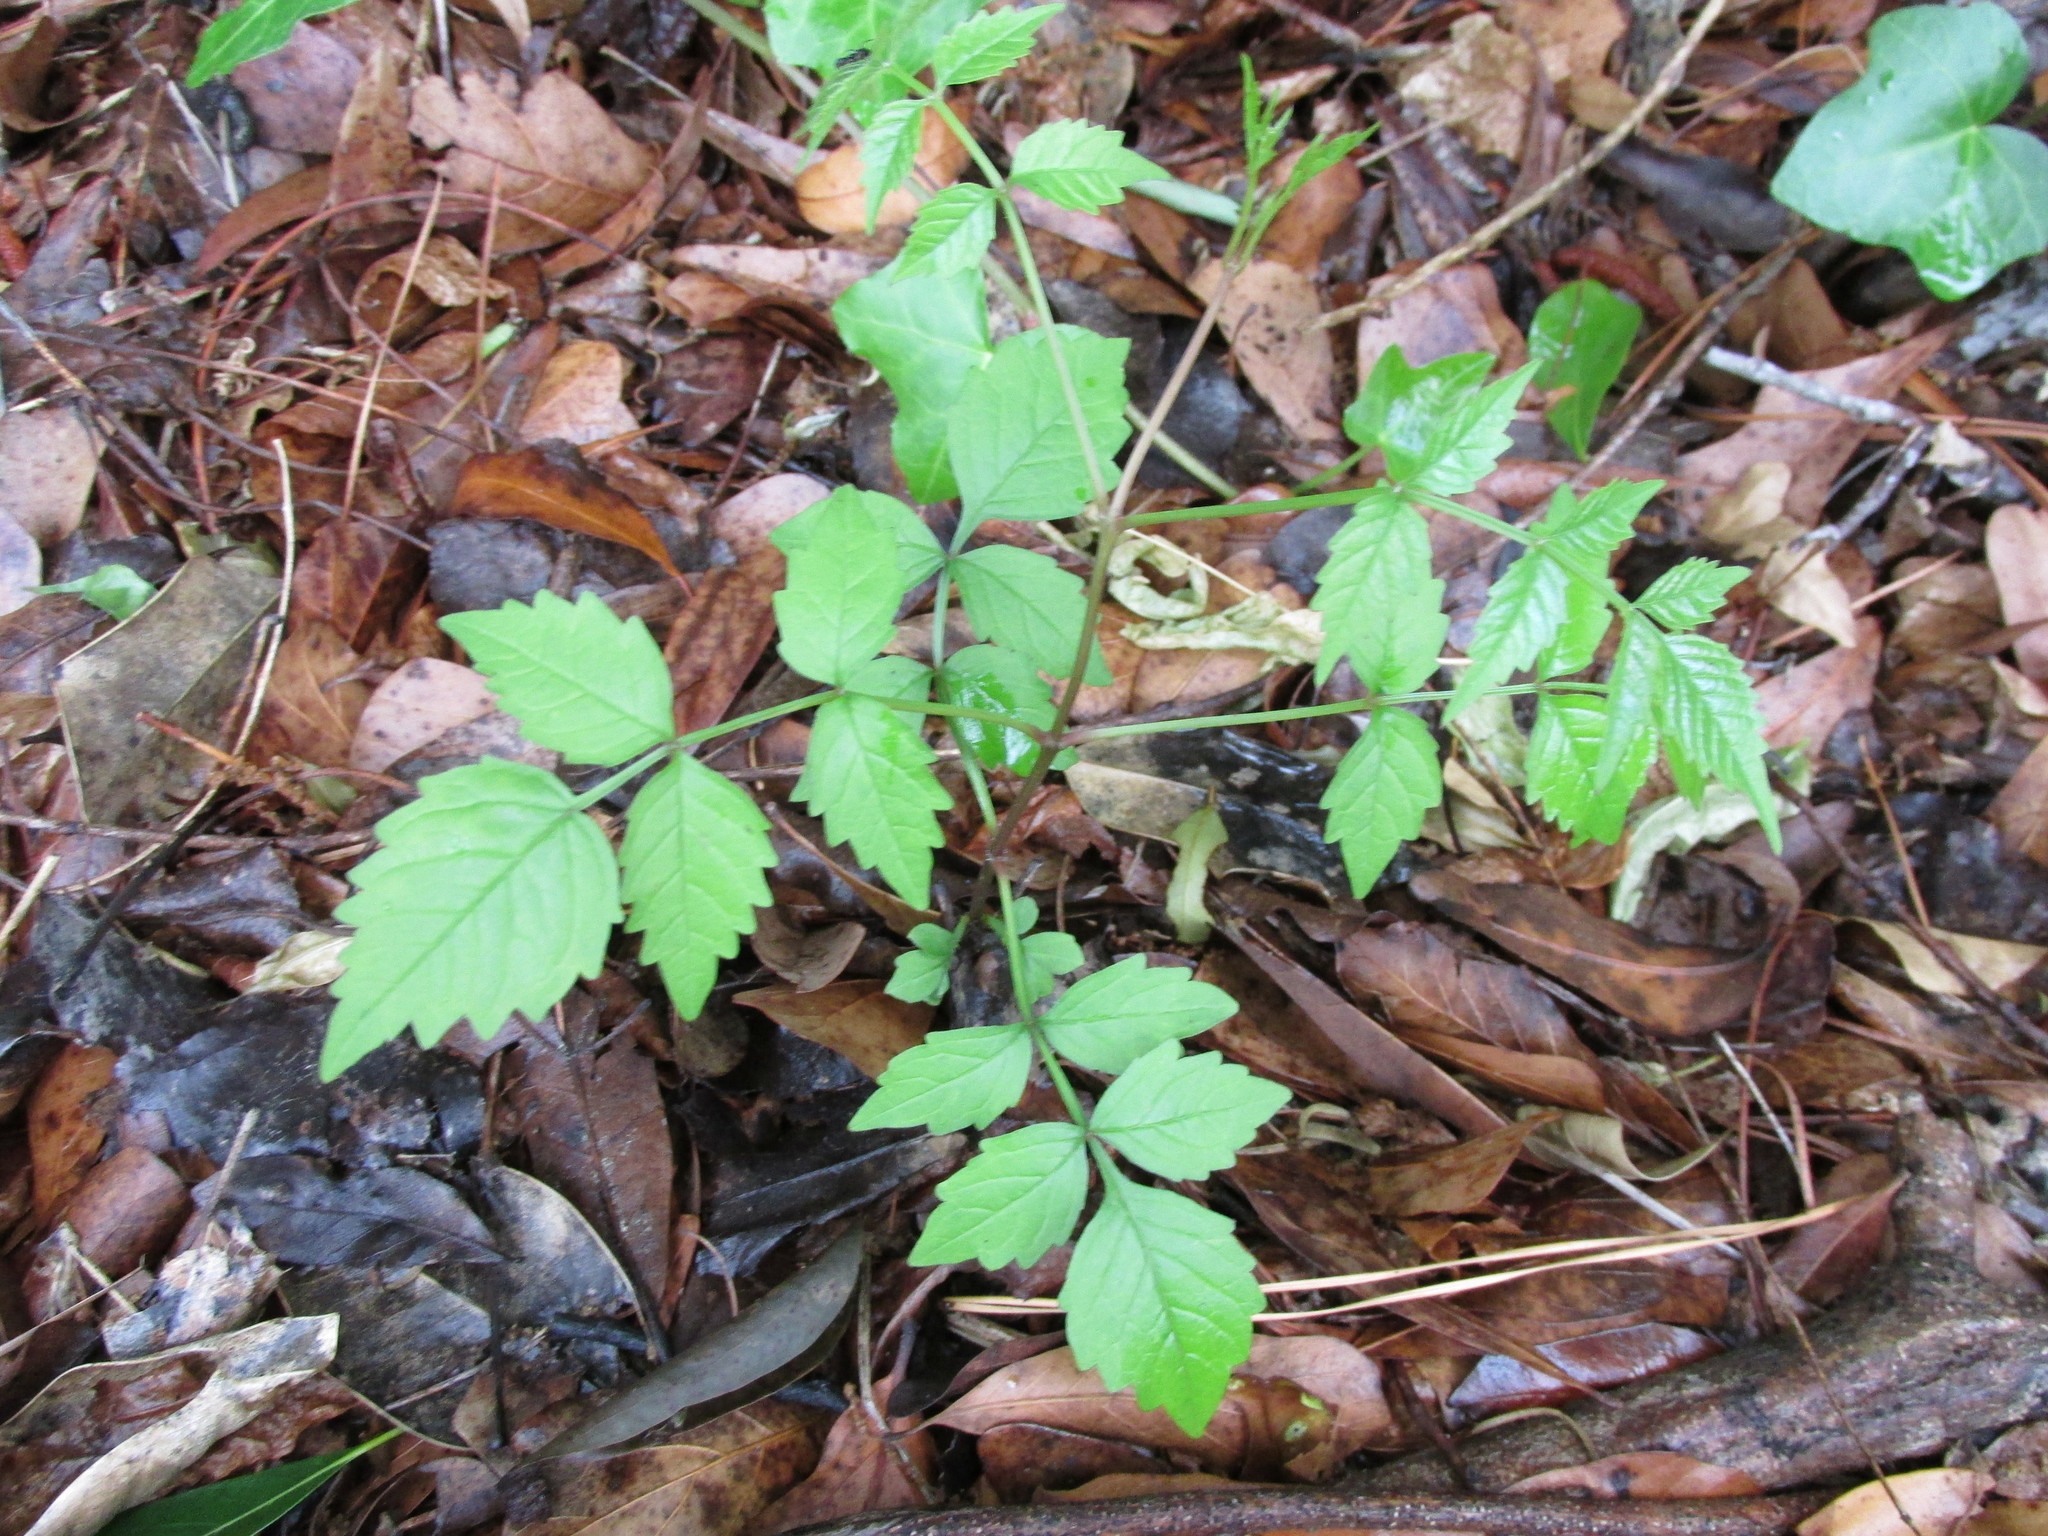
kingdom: Plantae
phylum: Tracheophyta
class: Magnoliopsida
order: Lamiales
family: Bignoniaceae
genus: Campsis
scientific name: Campsis radicans
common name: Trumpet-creeper
